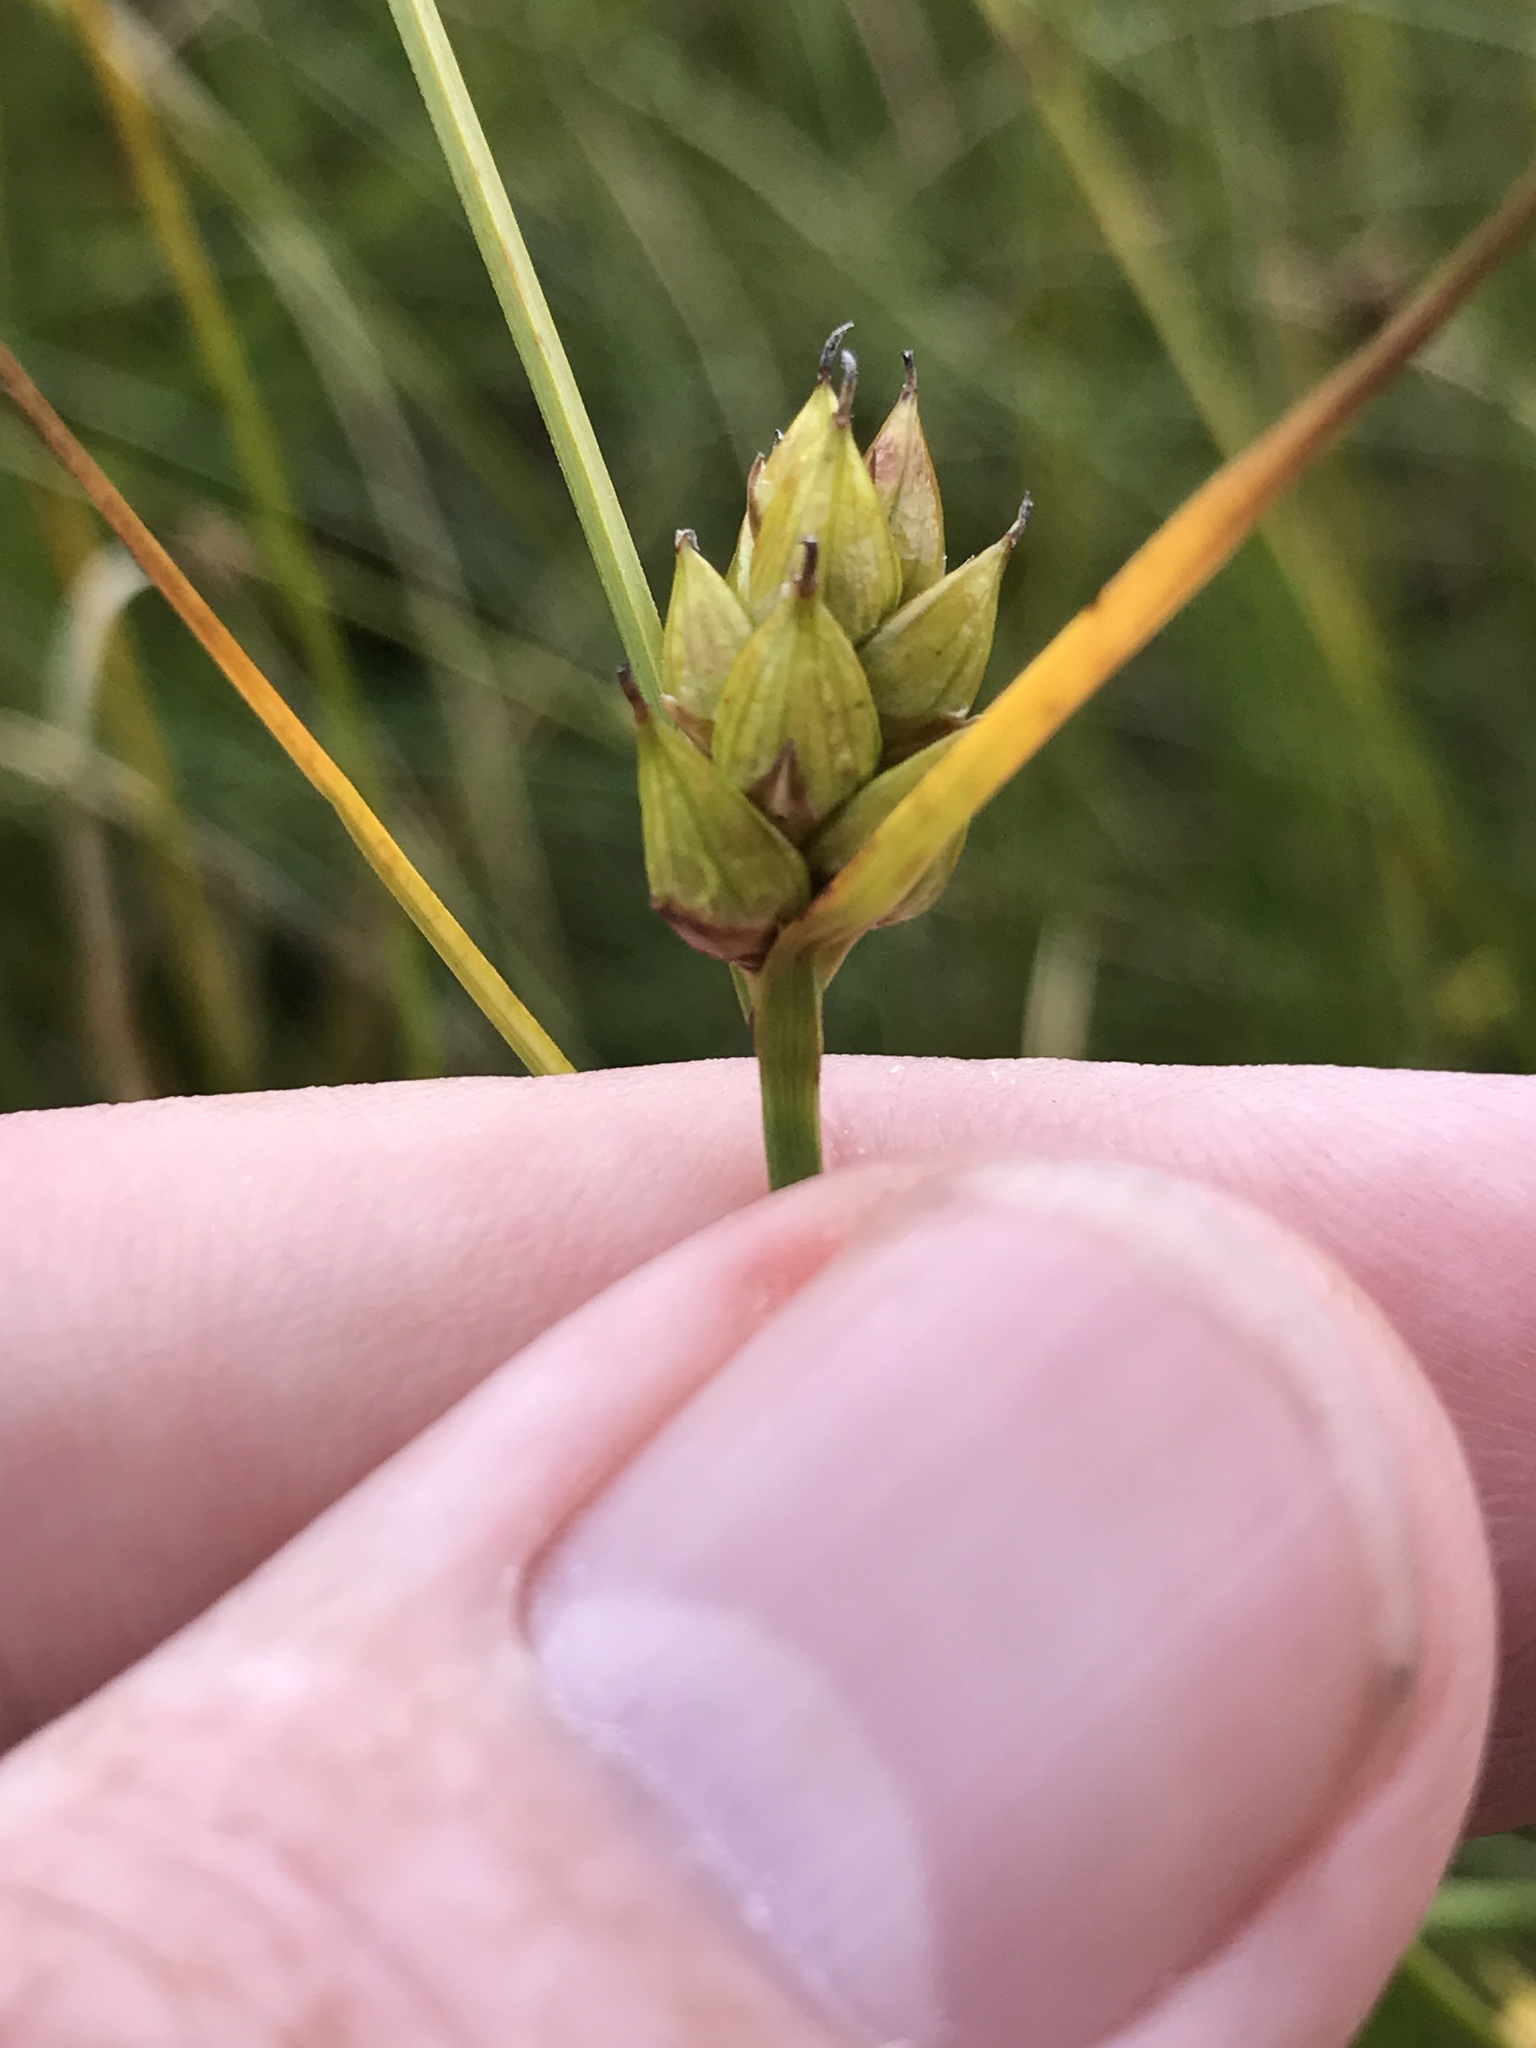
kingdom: Plantae
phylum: Tracheophyta
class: Liliopsida
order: Poales
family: Cyperaceae
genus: Carex
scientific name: Carex oligosperma
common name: Few-seed sedge
